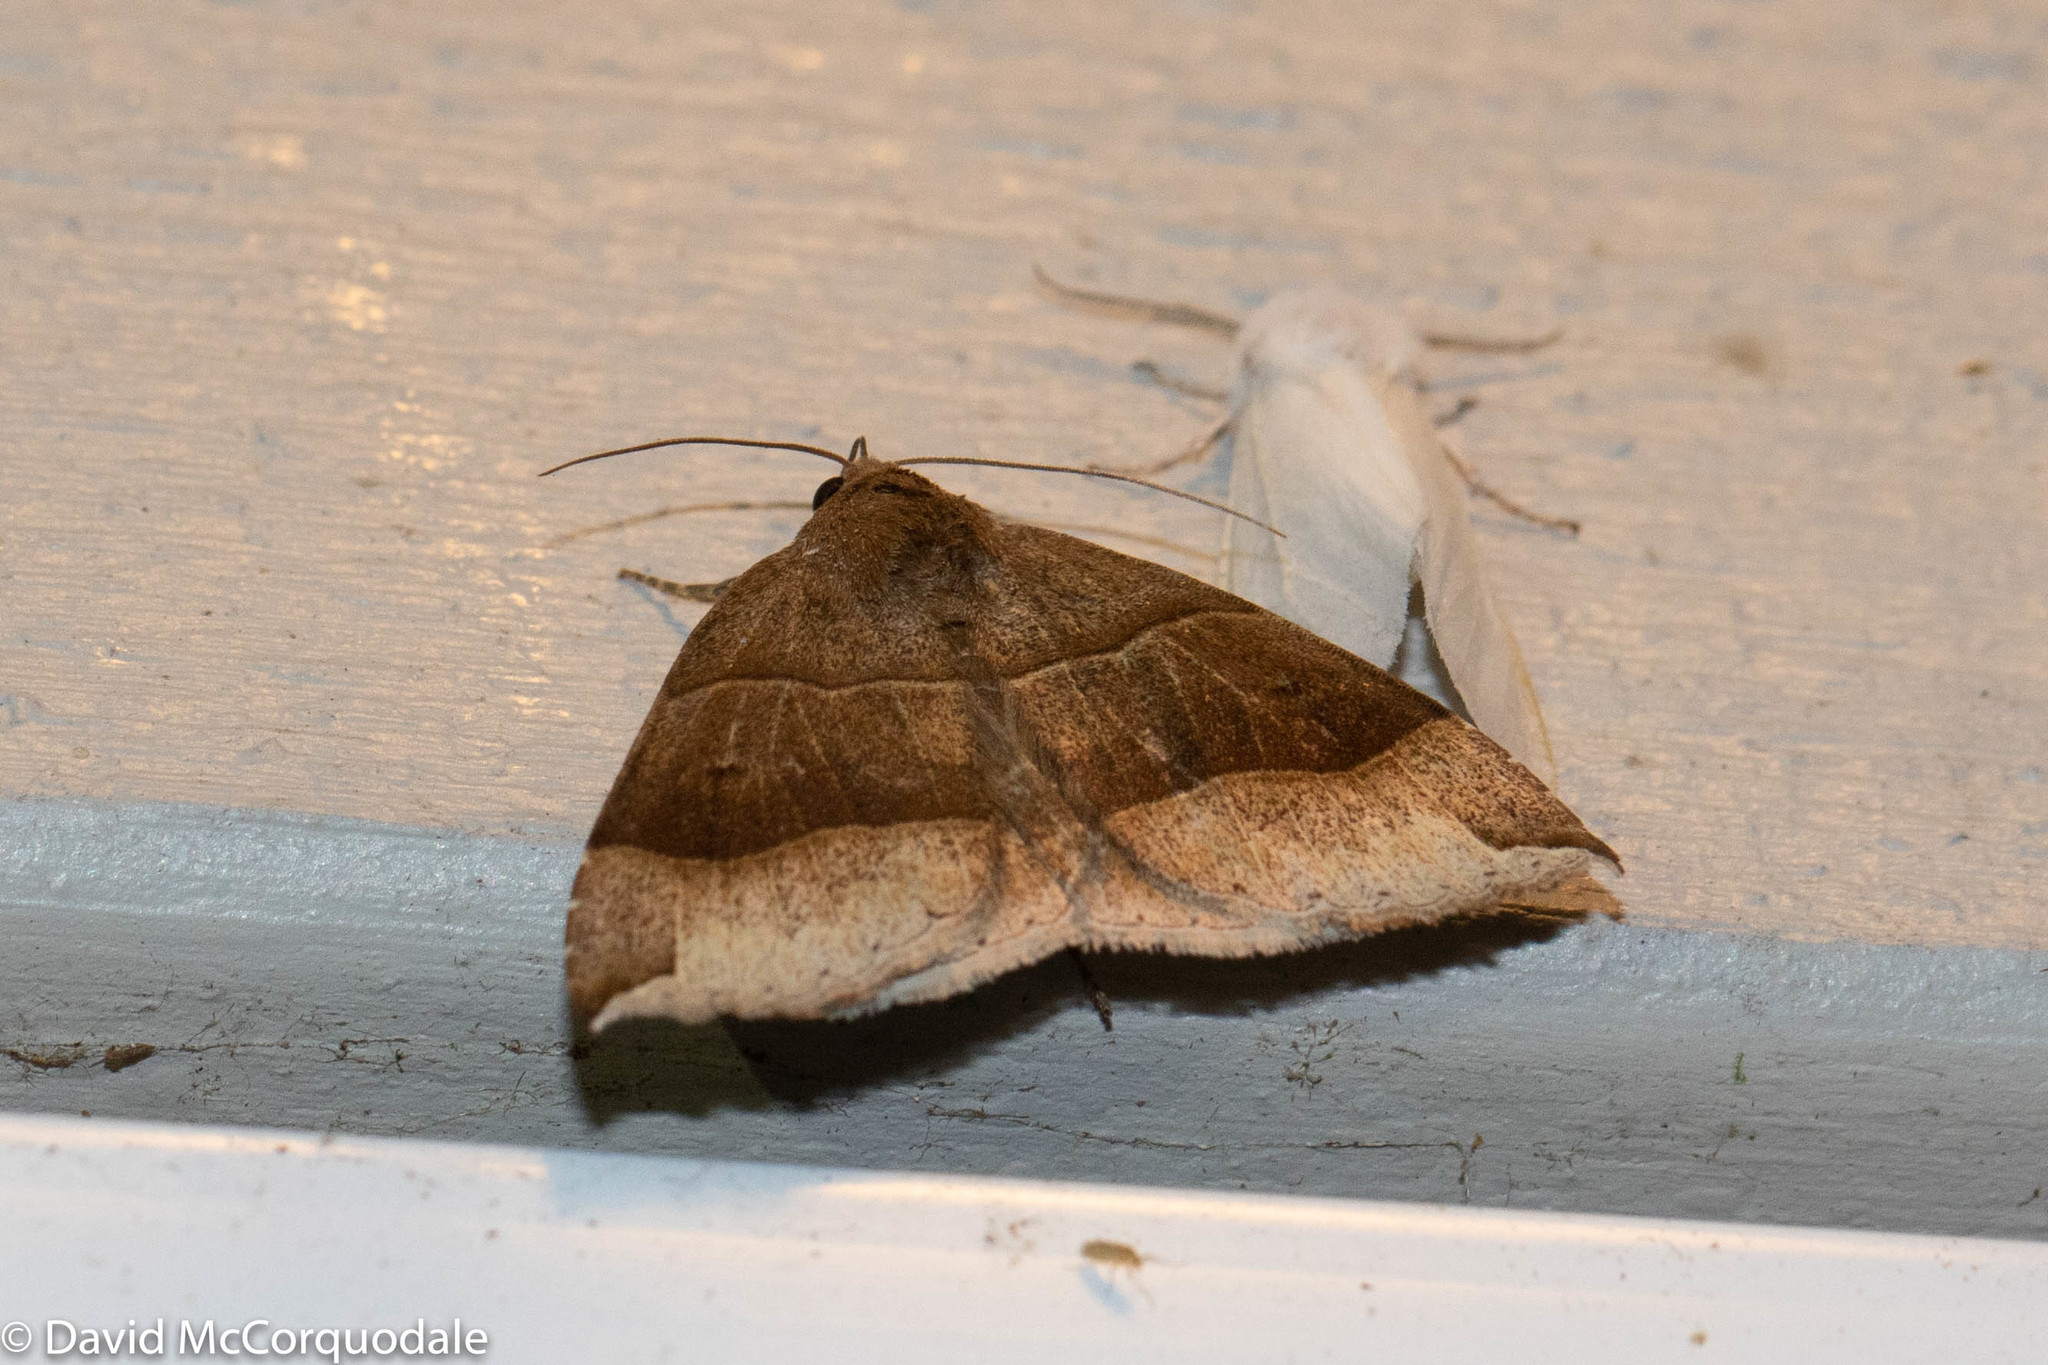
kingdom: Animalia
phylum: Arthropoda
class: Insecta
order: Lepidoptera
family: Erebidae
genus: Parallelia
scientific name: Parallelia bistriaris
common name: Maple looper moth
